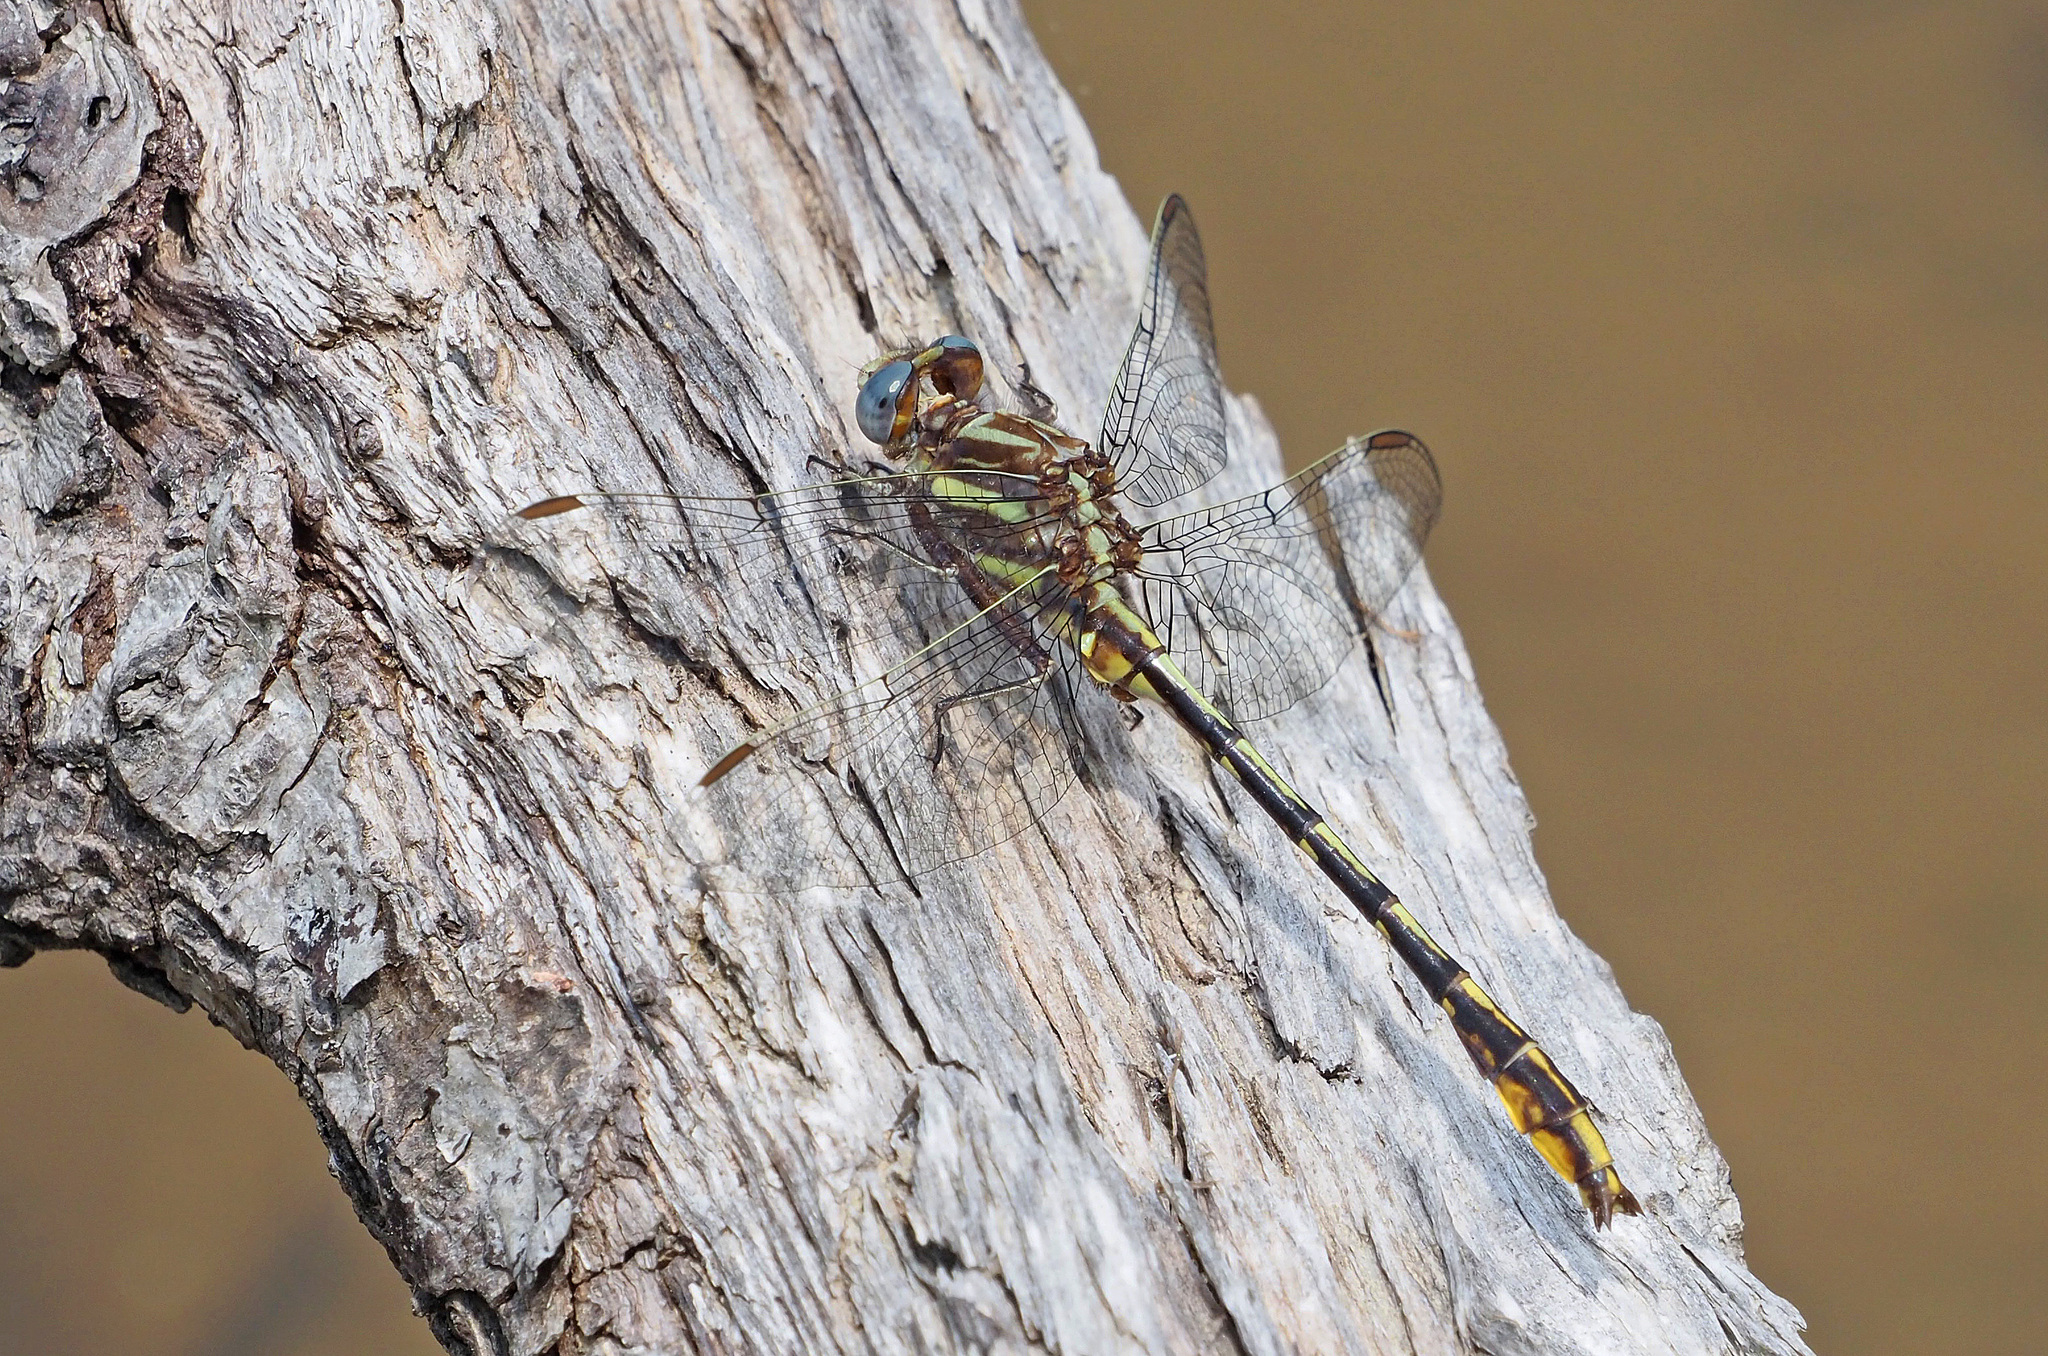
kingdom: Animalia
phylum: Arthropoda
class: Insecta
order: Odonata
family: Gomphidae
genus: Phanogomphus
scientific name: Phanogomphus exilis
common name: Lancet clubtail
